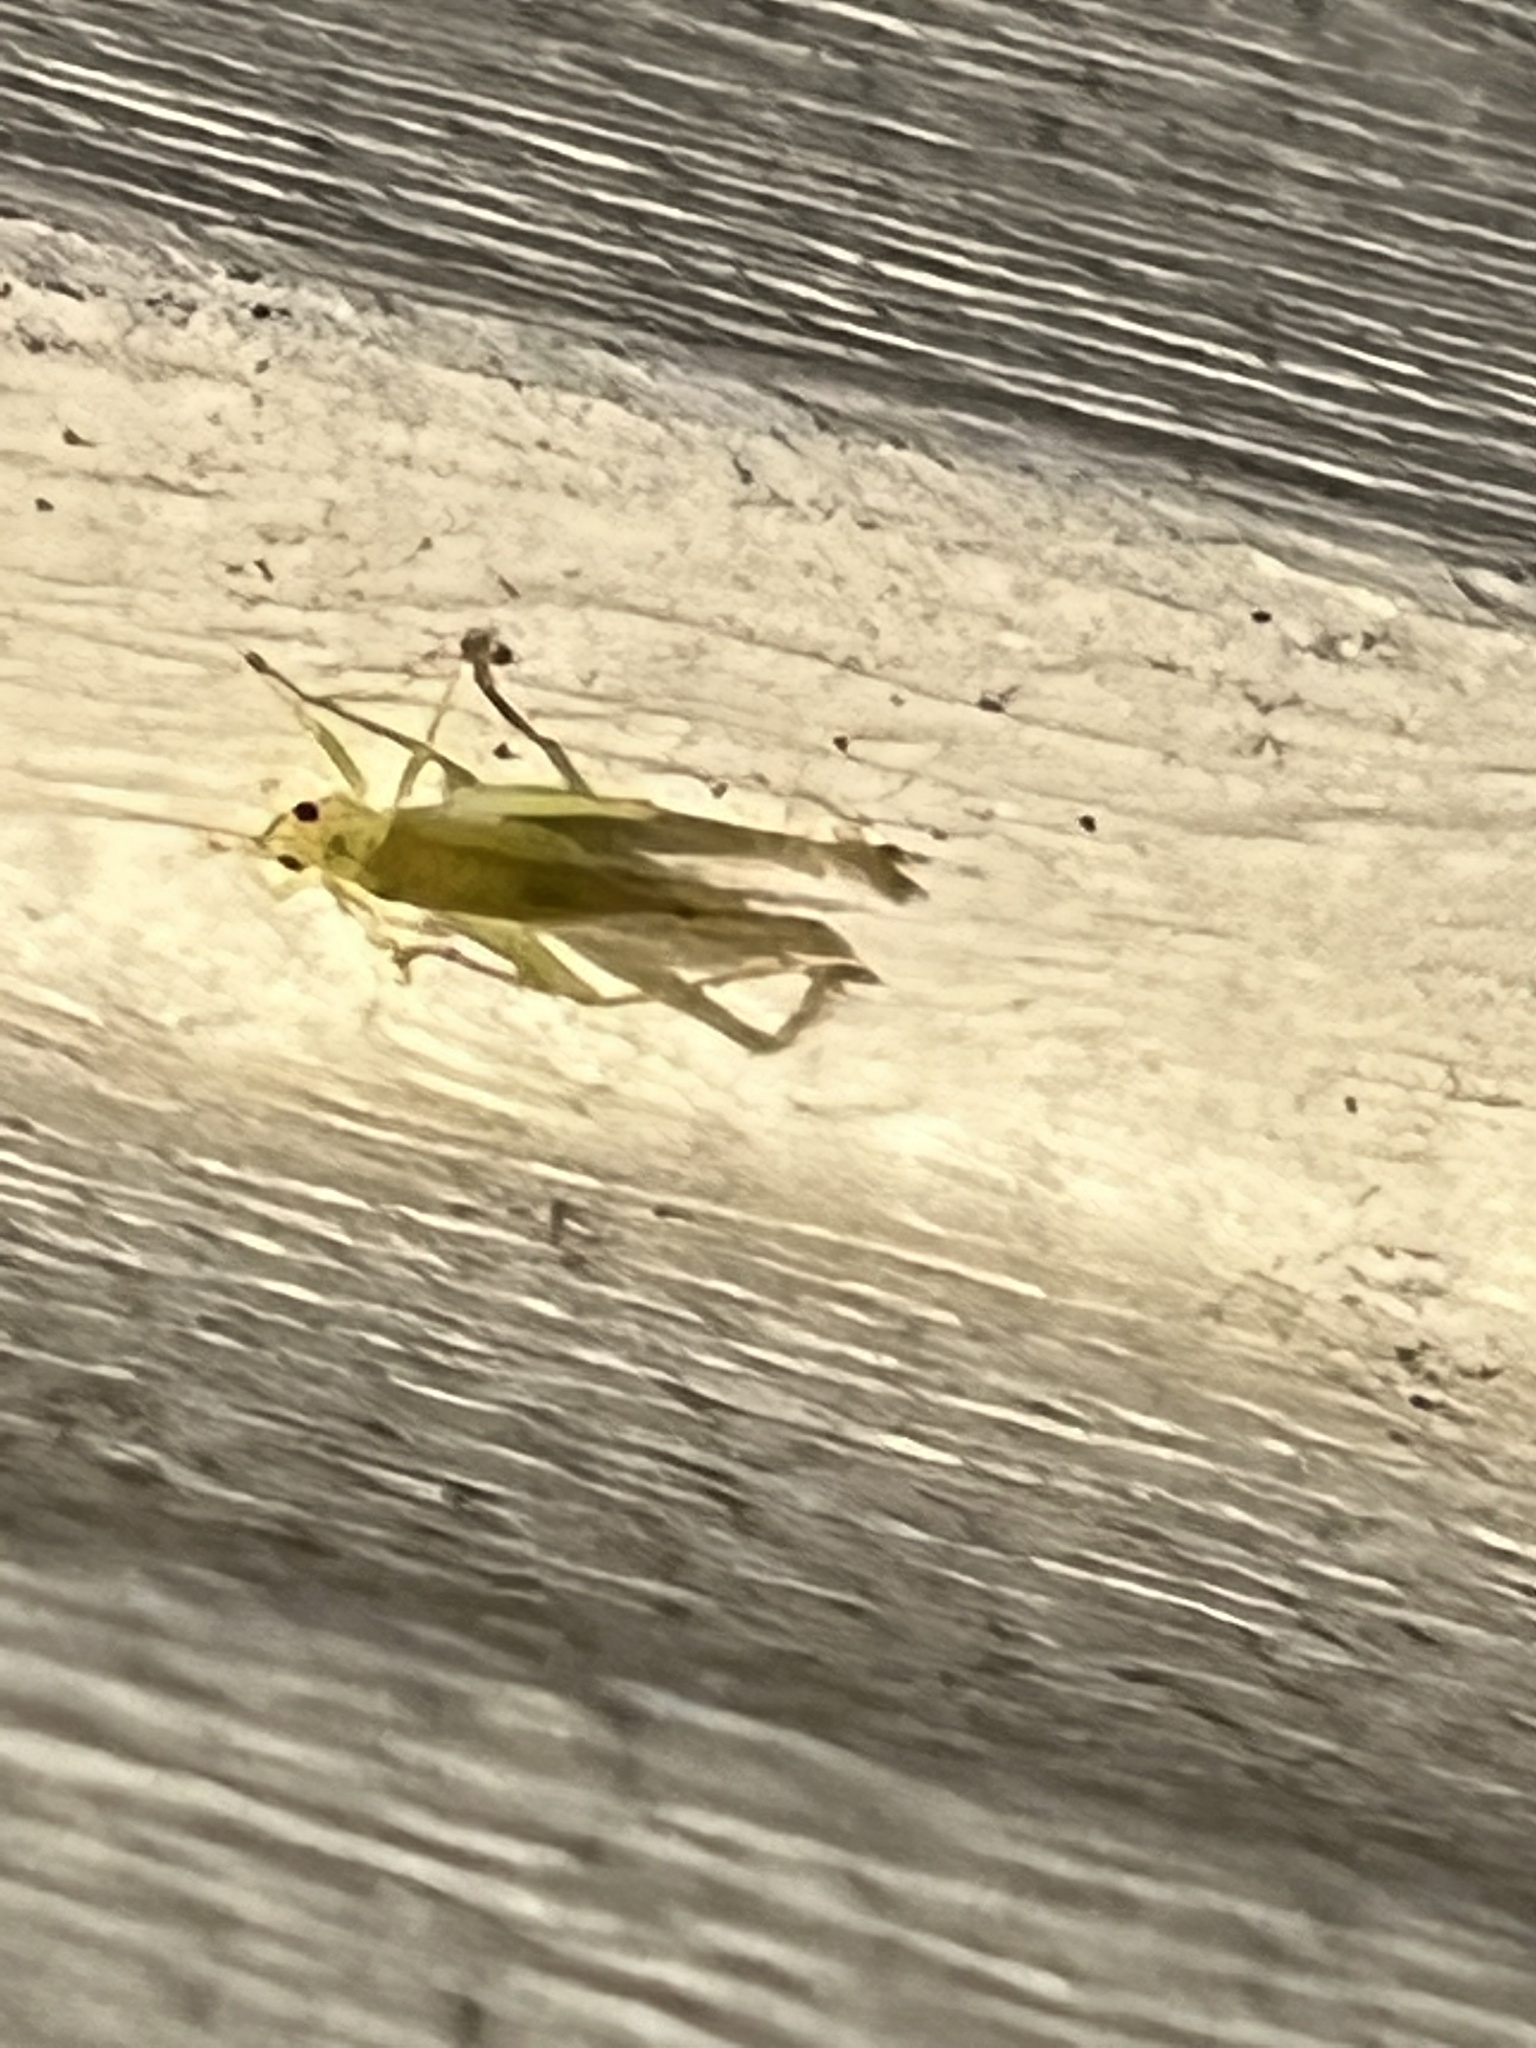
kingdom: Animalia
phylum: Arthropoda
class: Insecta
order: Orthoptera
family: Trigonidiidae
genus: Cyrtoxipha
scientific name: Cyrtoxipha columbiana
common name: Columbian trig
